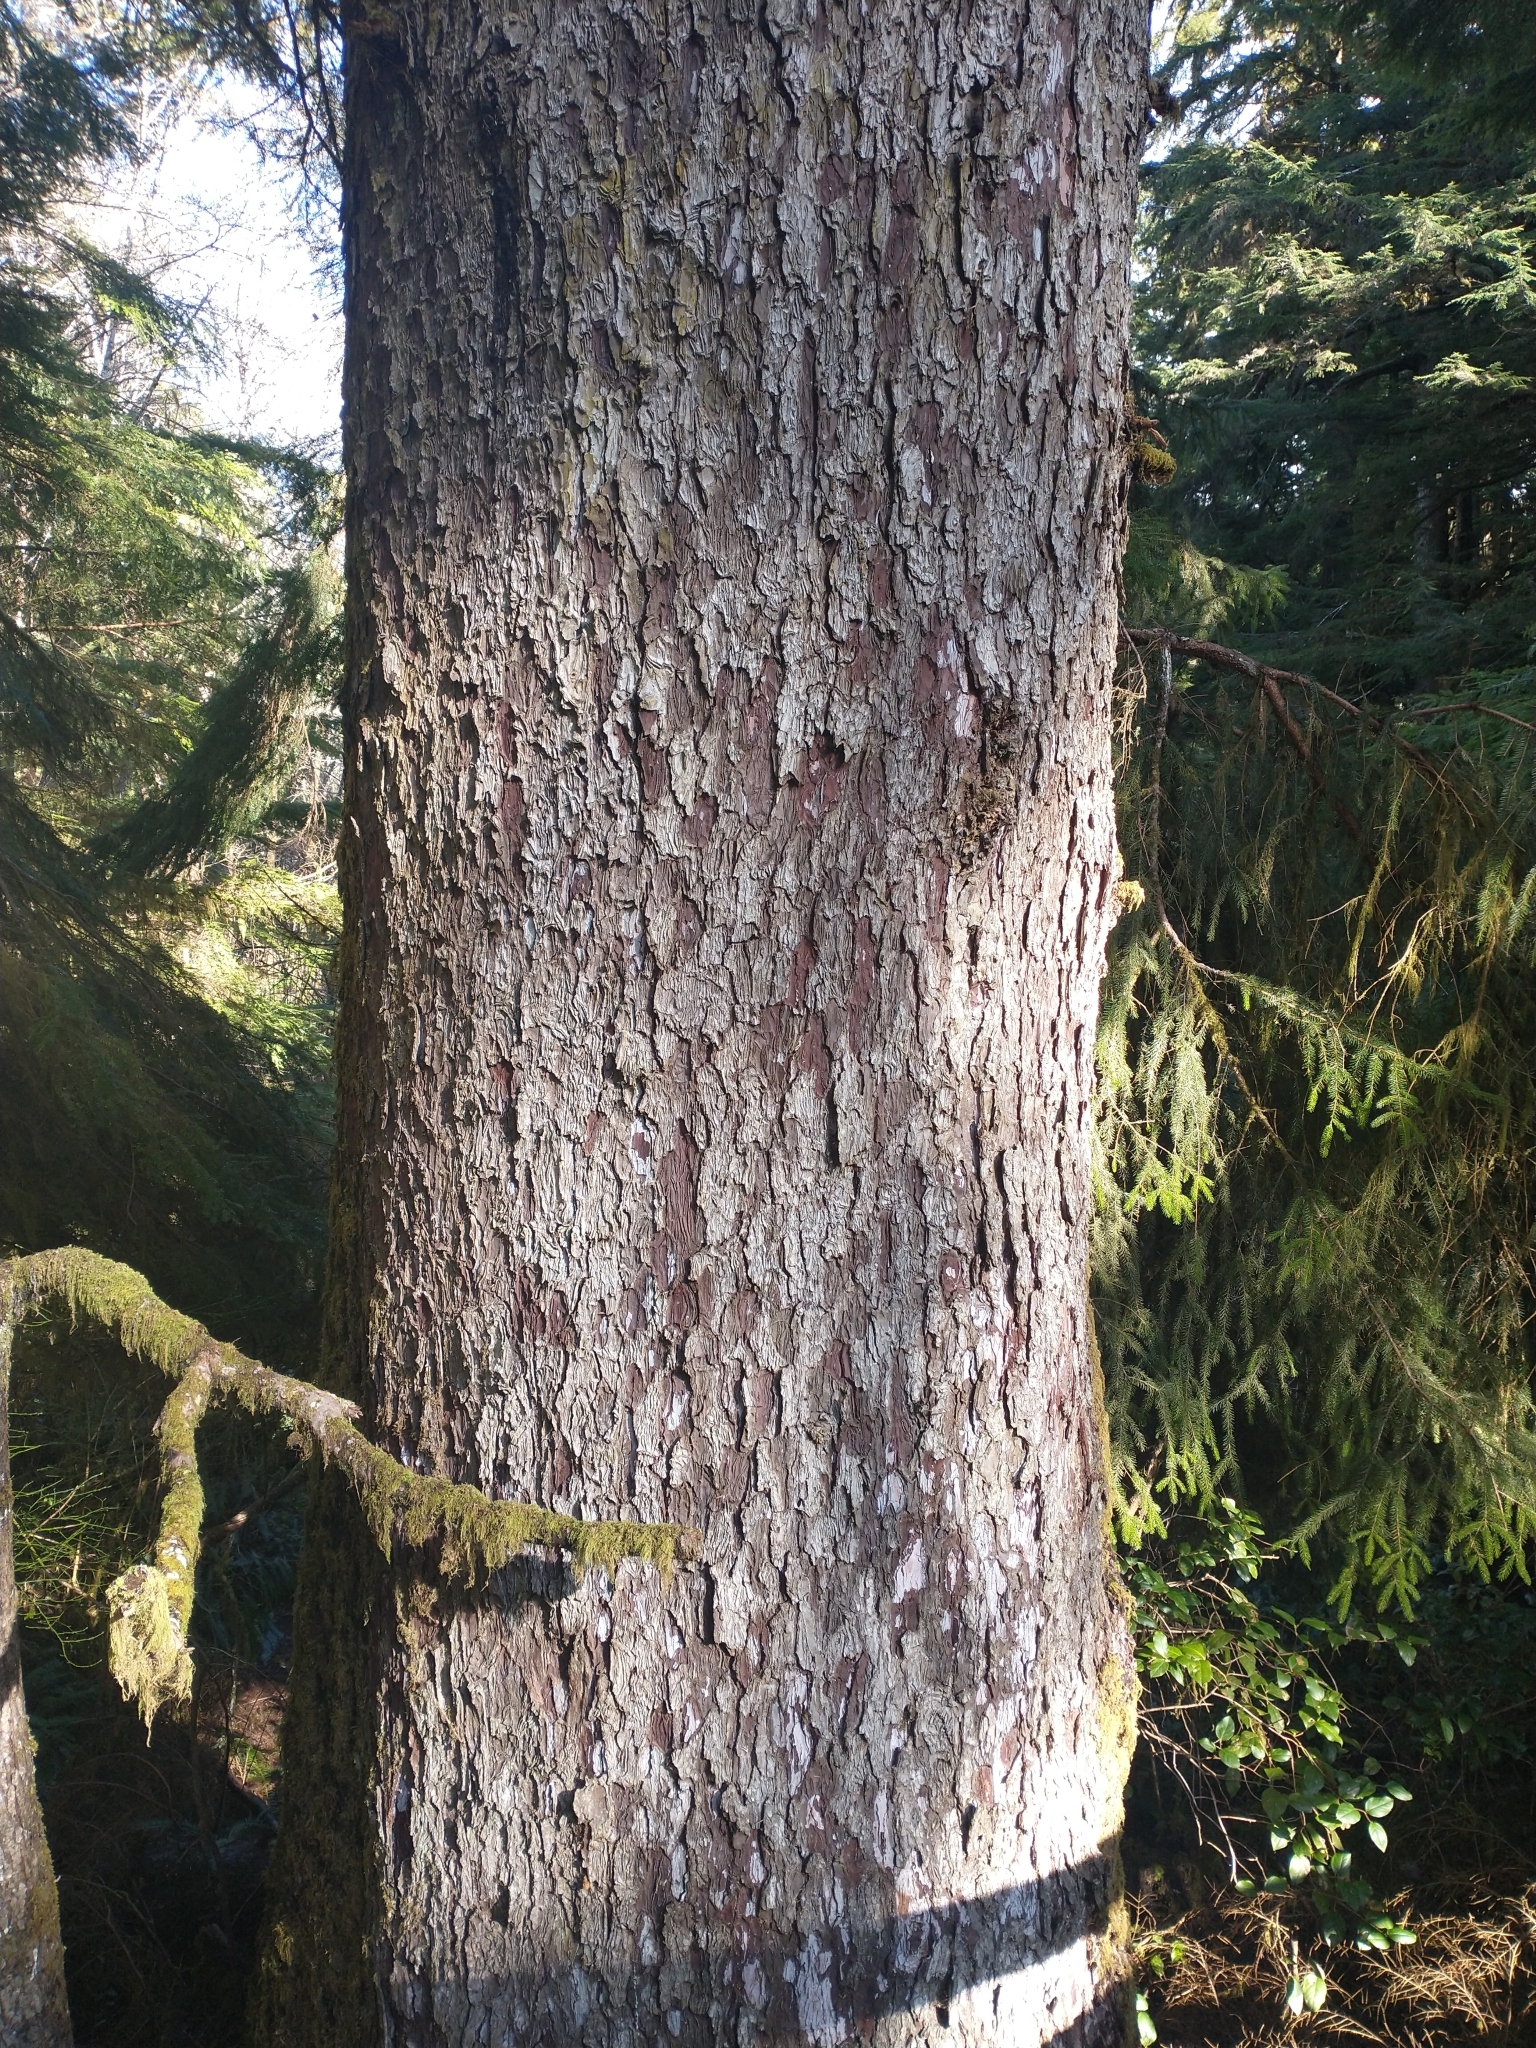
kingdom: Plantae
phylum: Tracheophyta
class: Pinopsida
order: Pinales
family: Pinaceae
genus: Picea
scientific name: Picea sitchensis
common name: Sitka spruce
